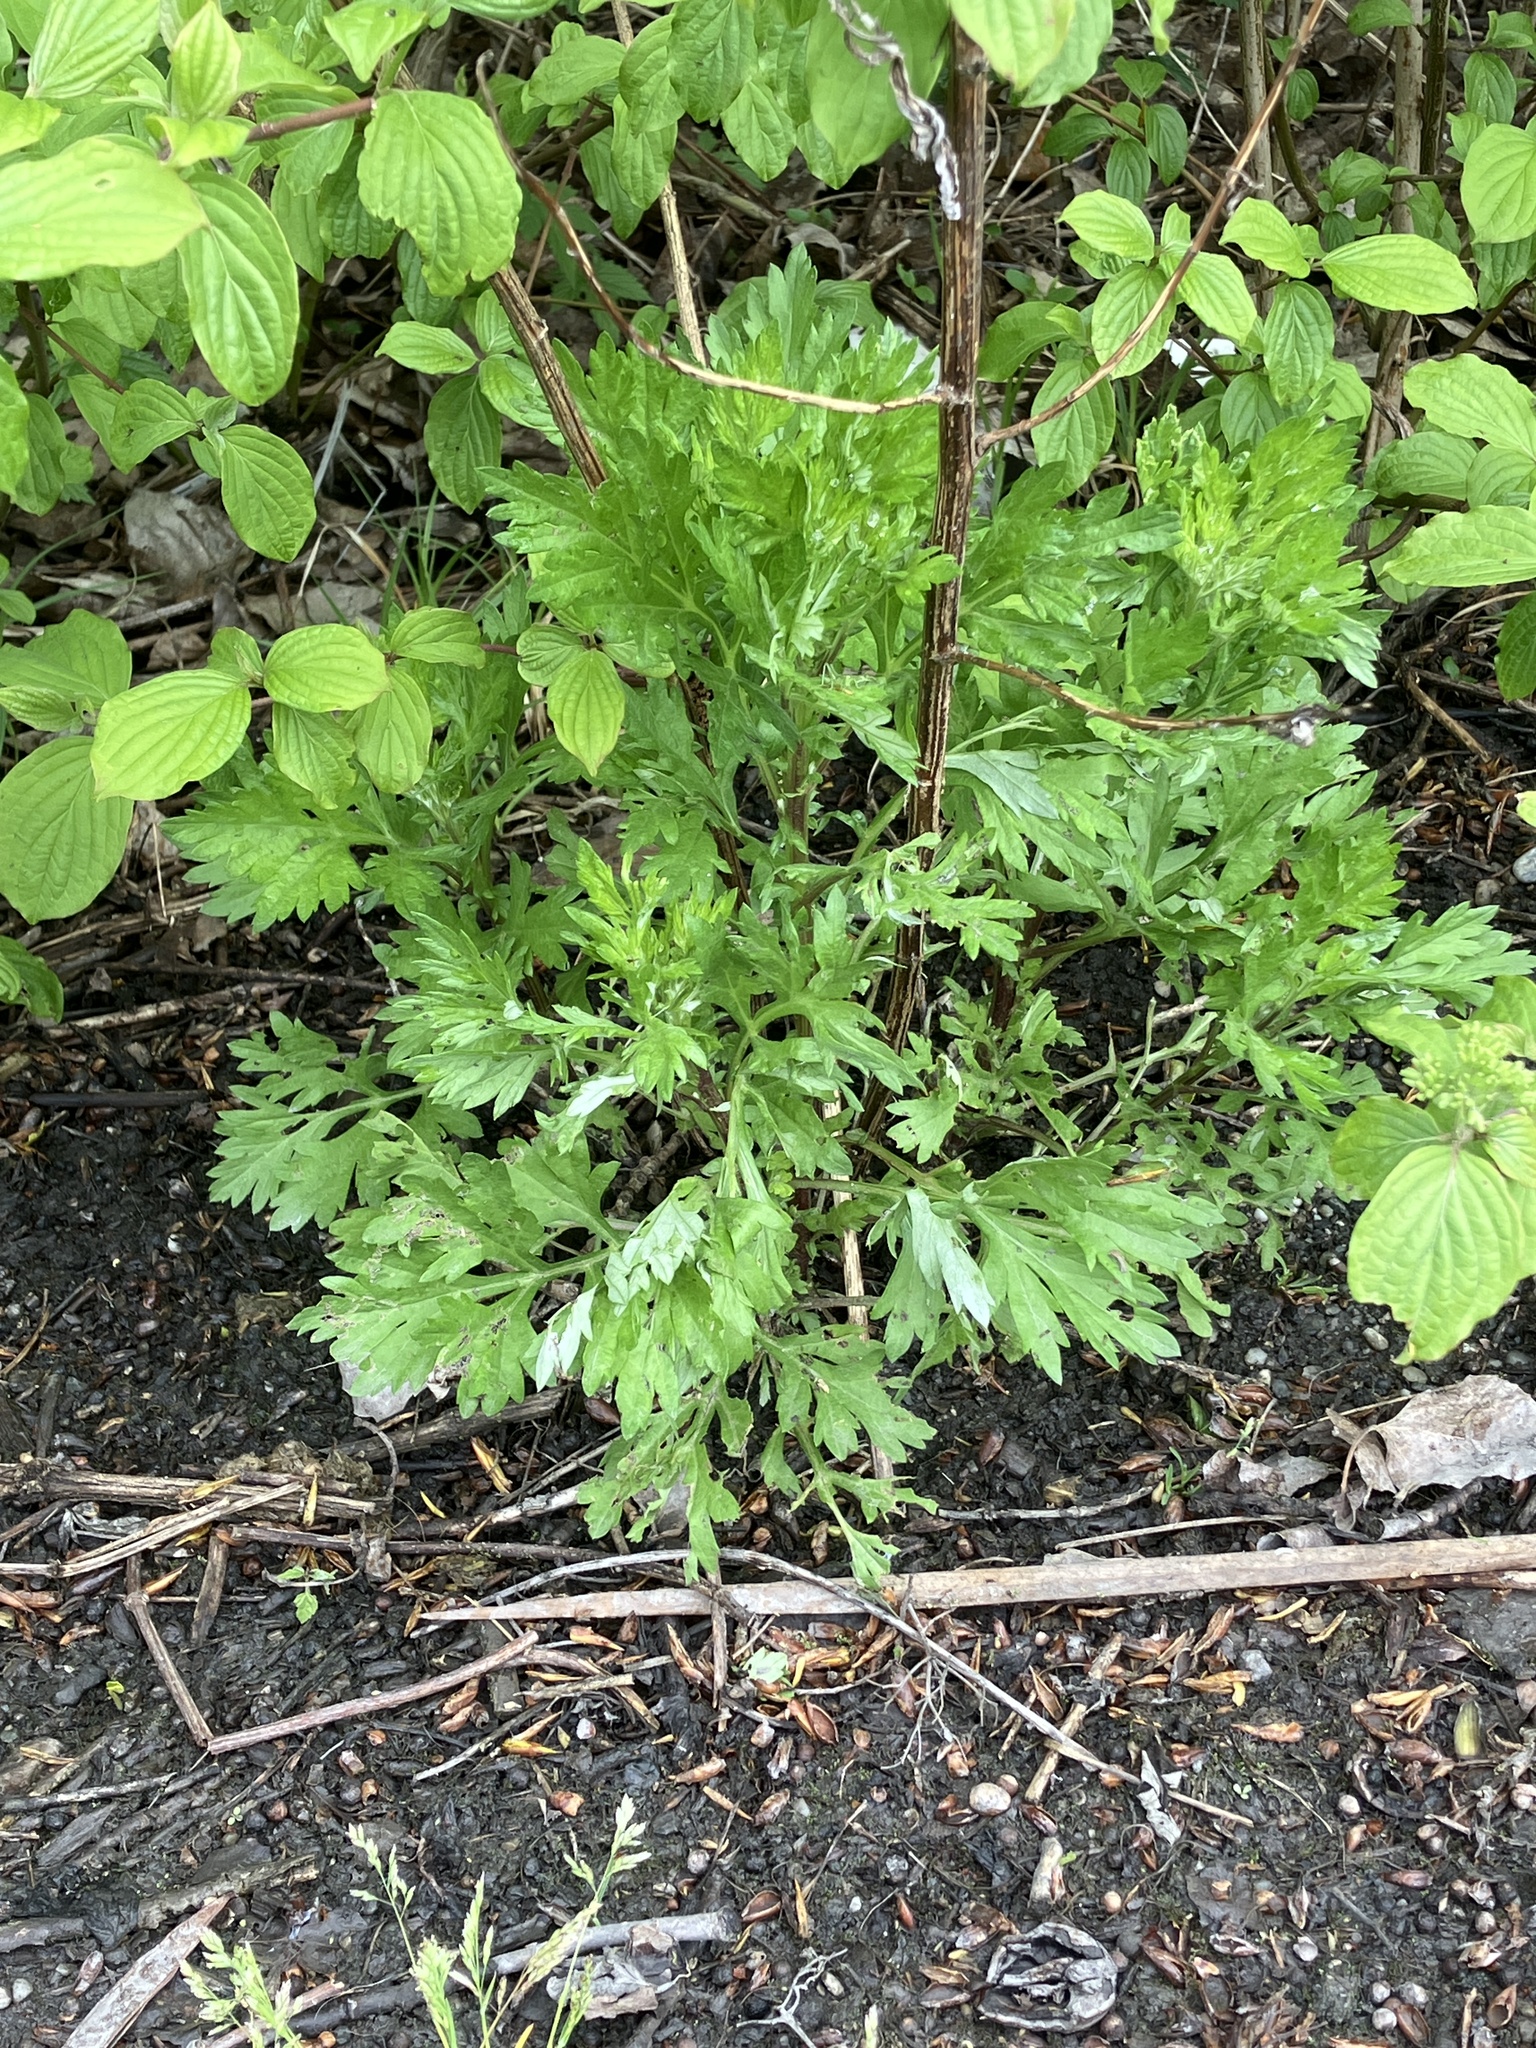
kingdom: Plantae
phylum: Tracheophyta
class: Magnoliopsida
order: Asterales
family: Asteraceae
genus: Artemisia
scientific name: Artemisia vulgaris
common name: Mugwort
